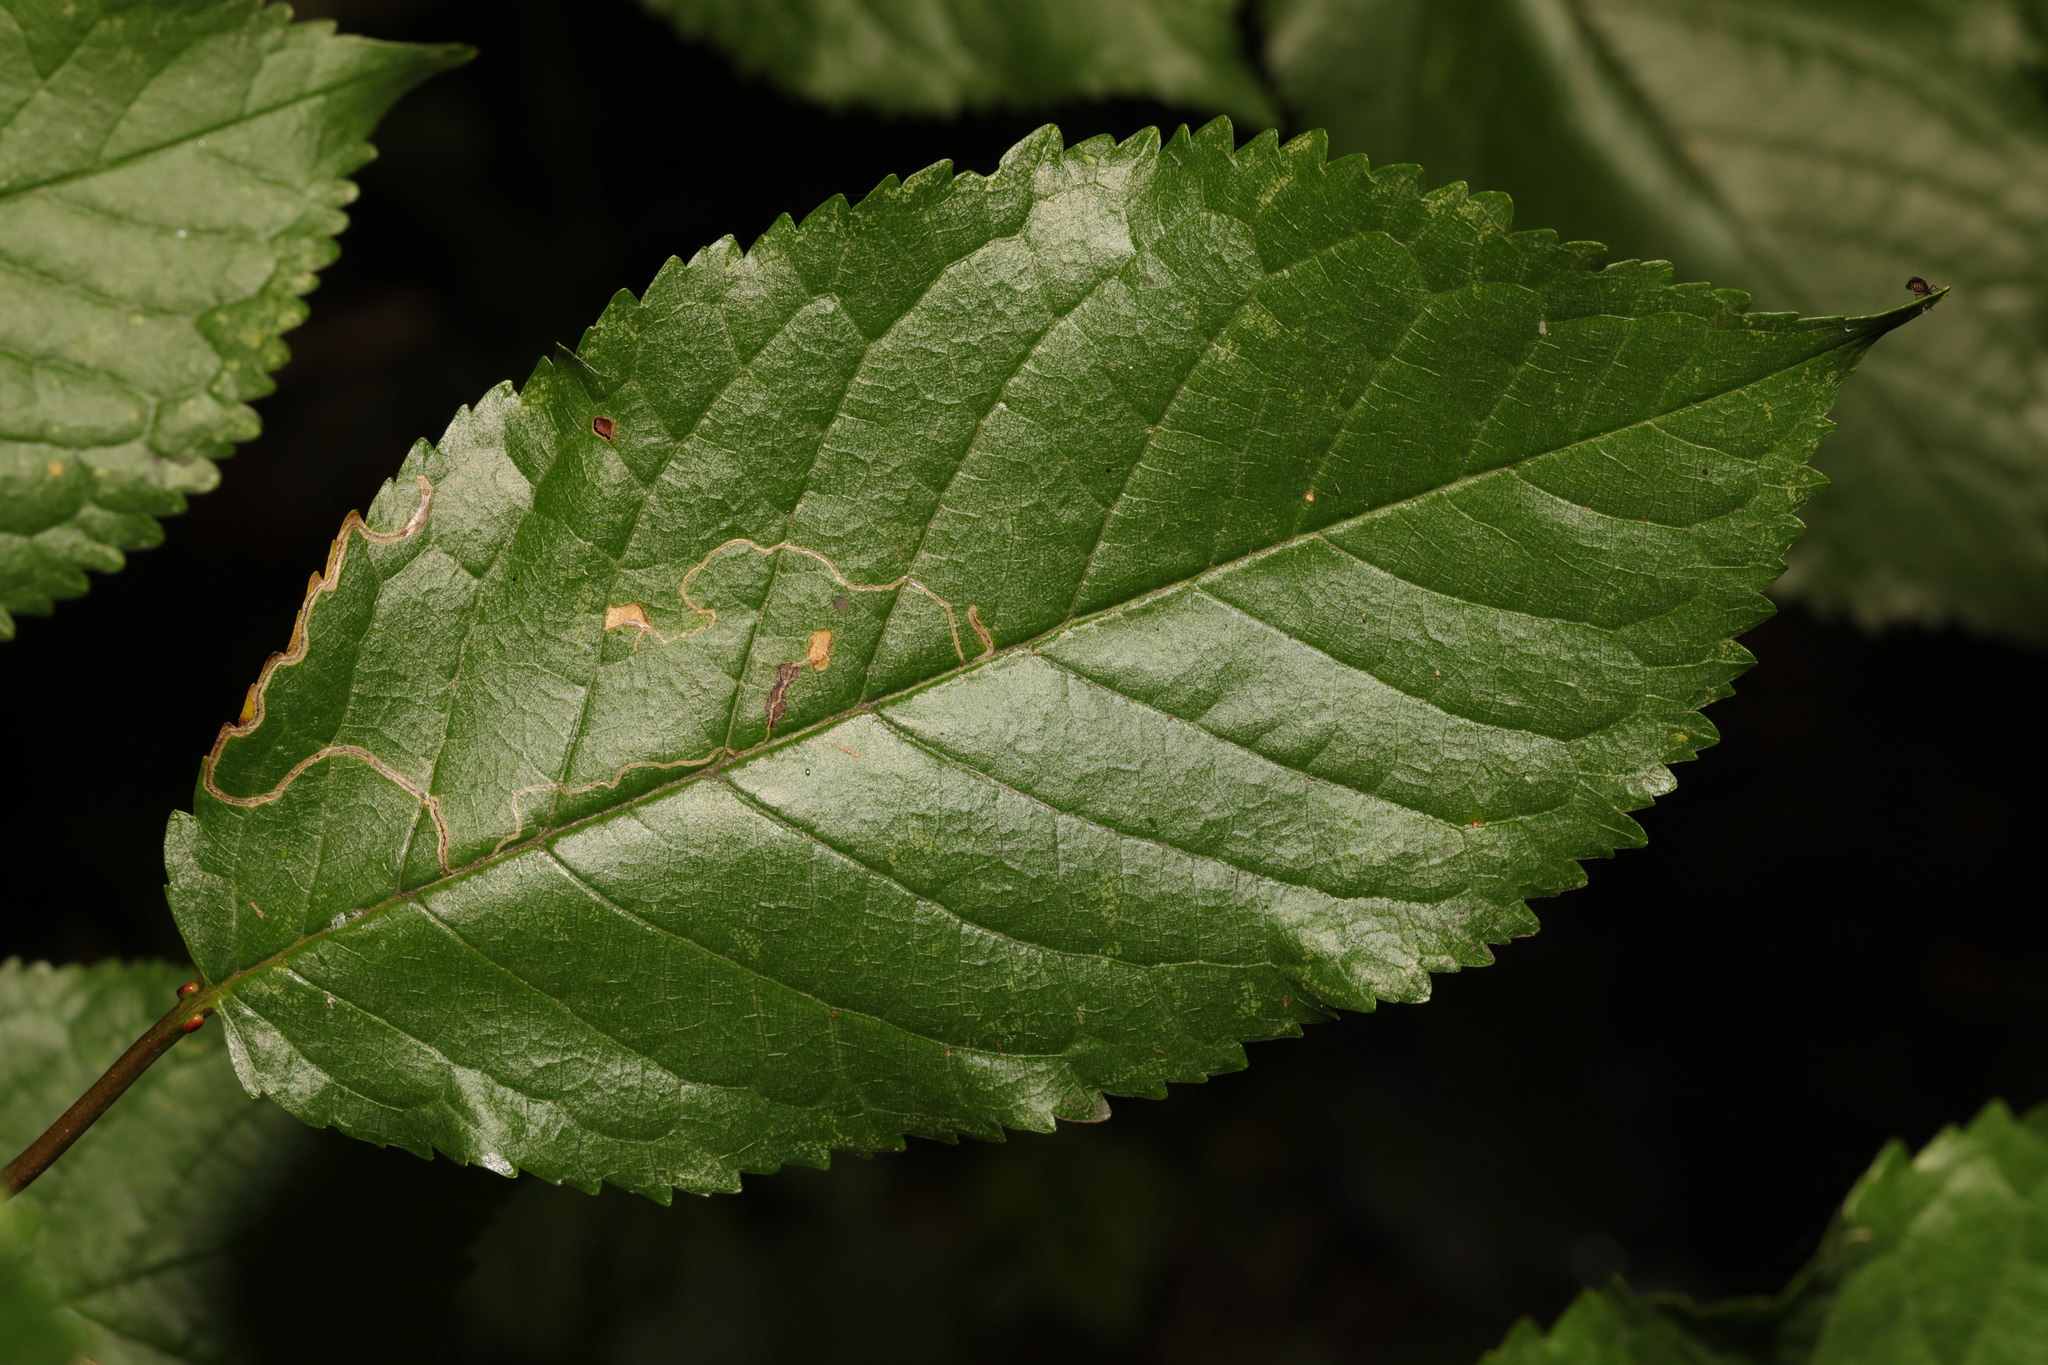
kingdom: Animalia
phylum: Arthropoda
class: Insecta
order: Lepidoptera
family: Lyonetiidae
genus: Lyonetia
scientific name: Lyonetia clerkella
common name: Apple leaf miner
